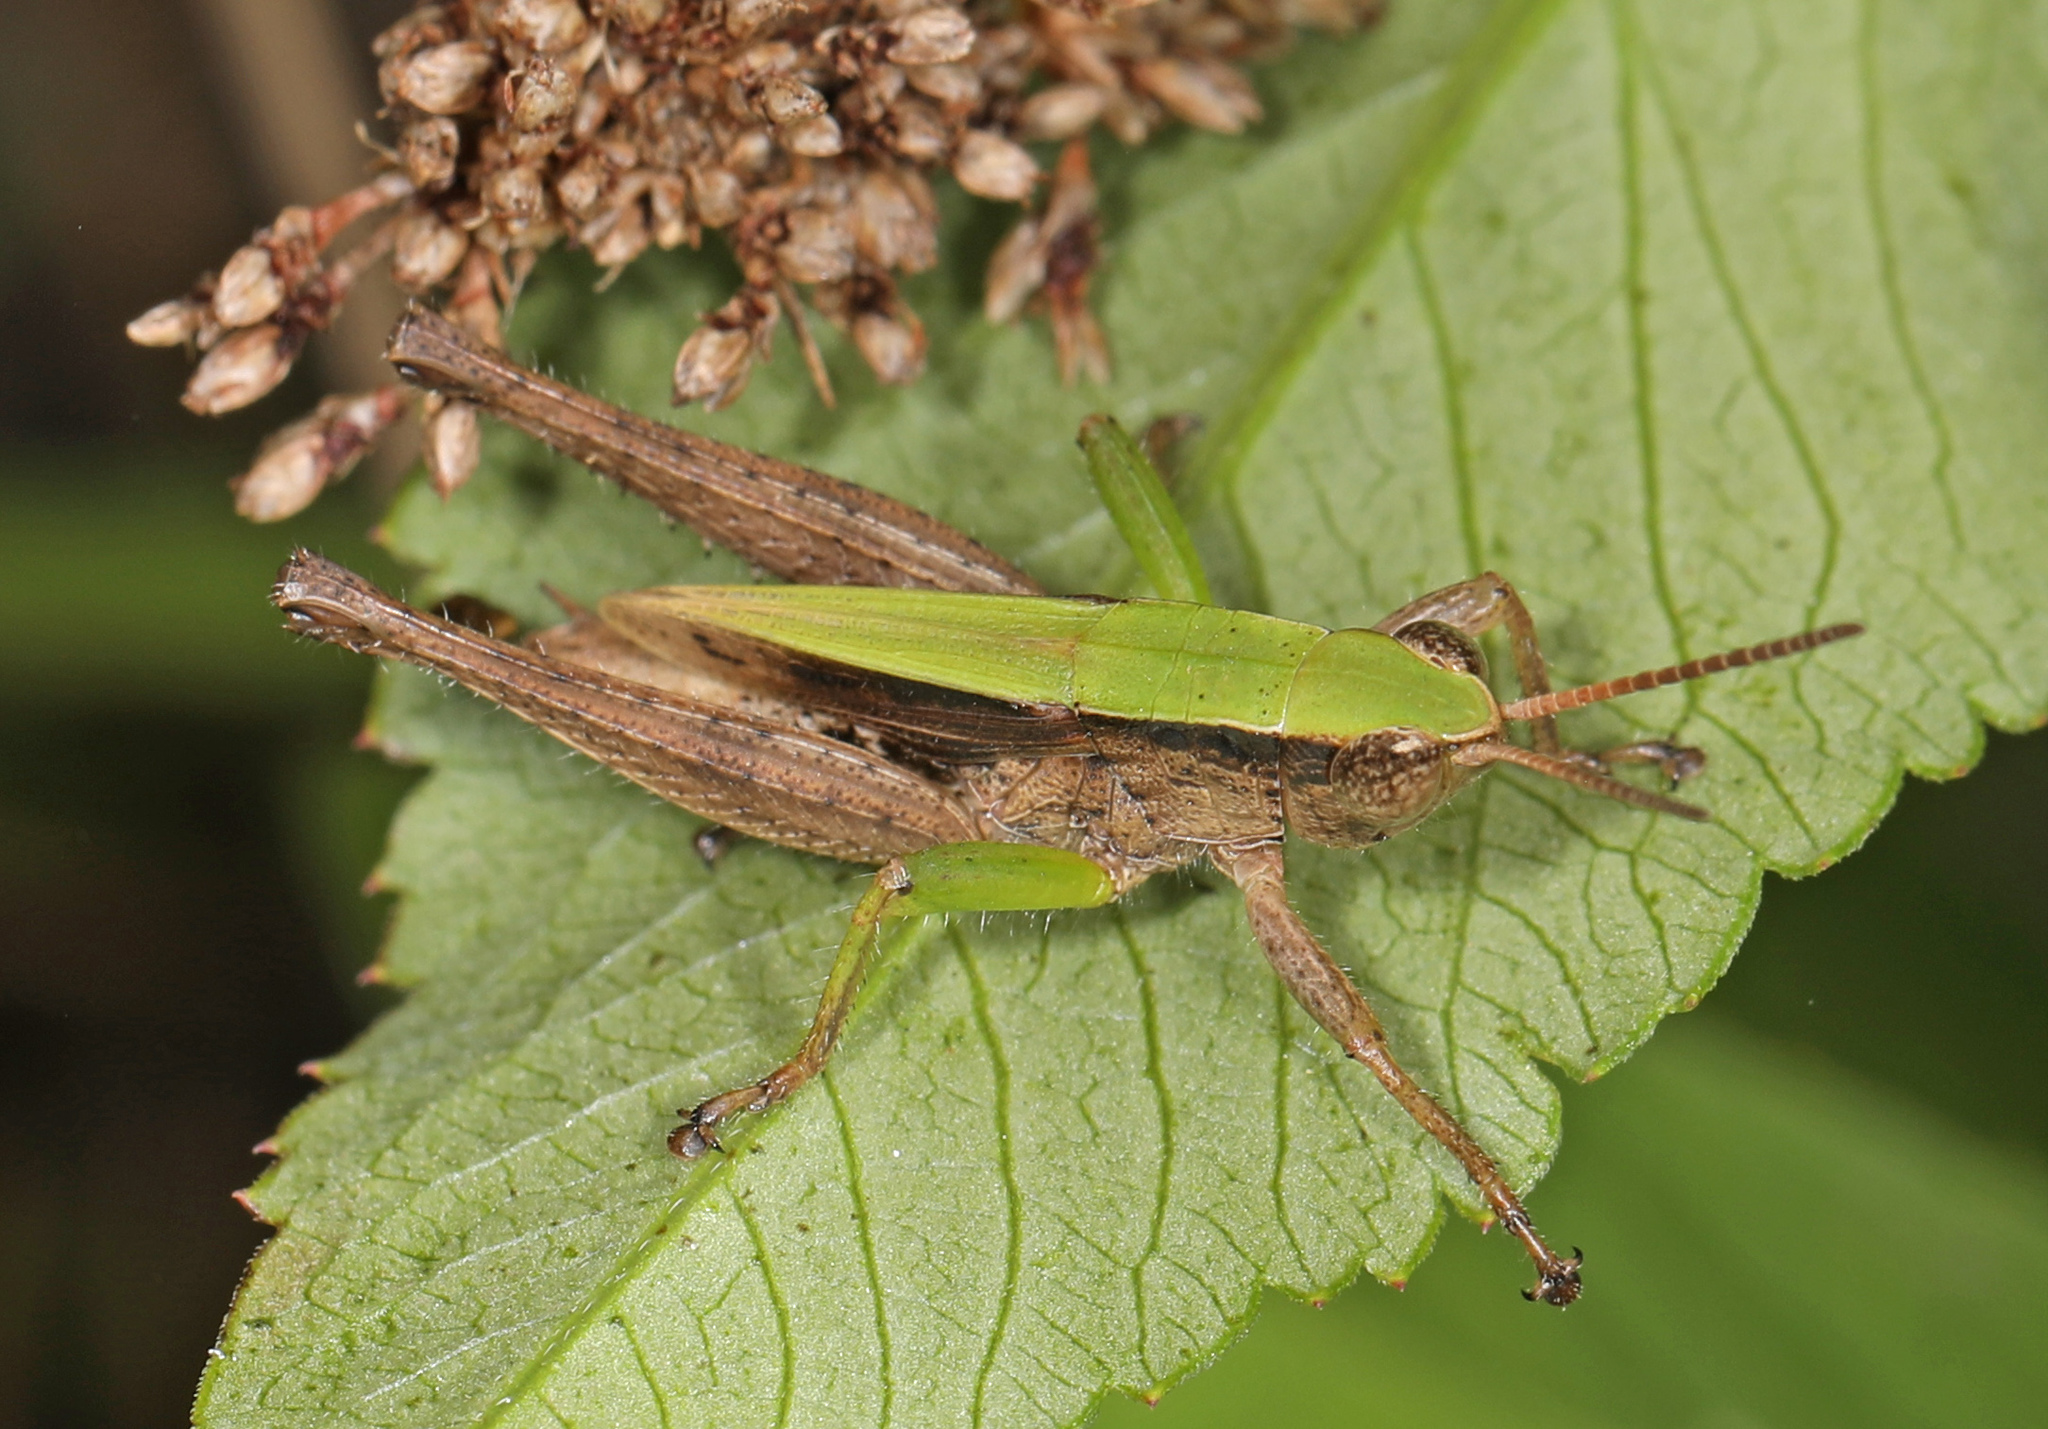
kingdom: Animalia
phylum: Arthropoda
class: Insecta
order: Orthoptera
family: Acrididae
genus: Dichromorpha
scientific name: Dichromorpha viridis
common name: Short-winged green grasshopper
